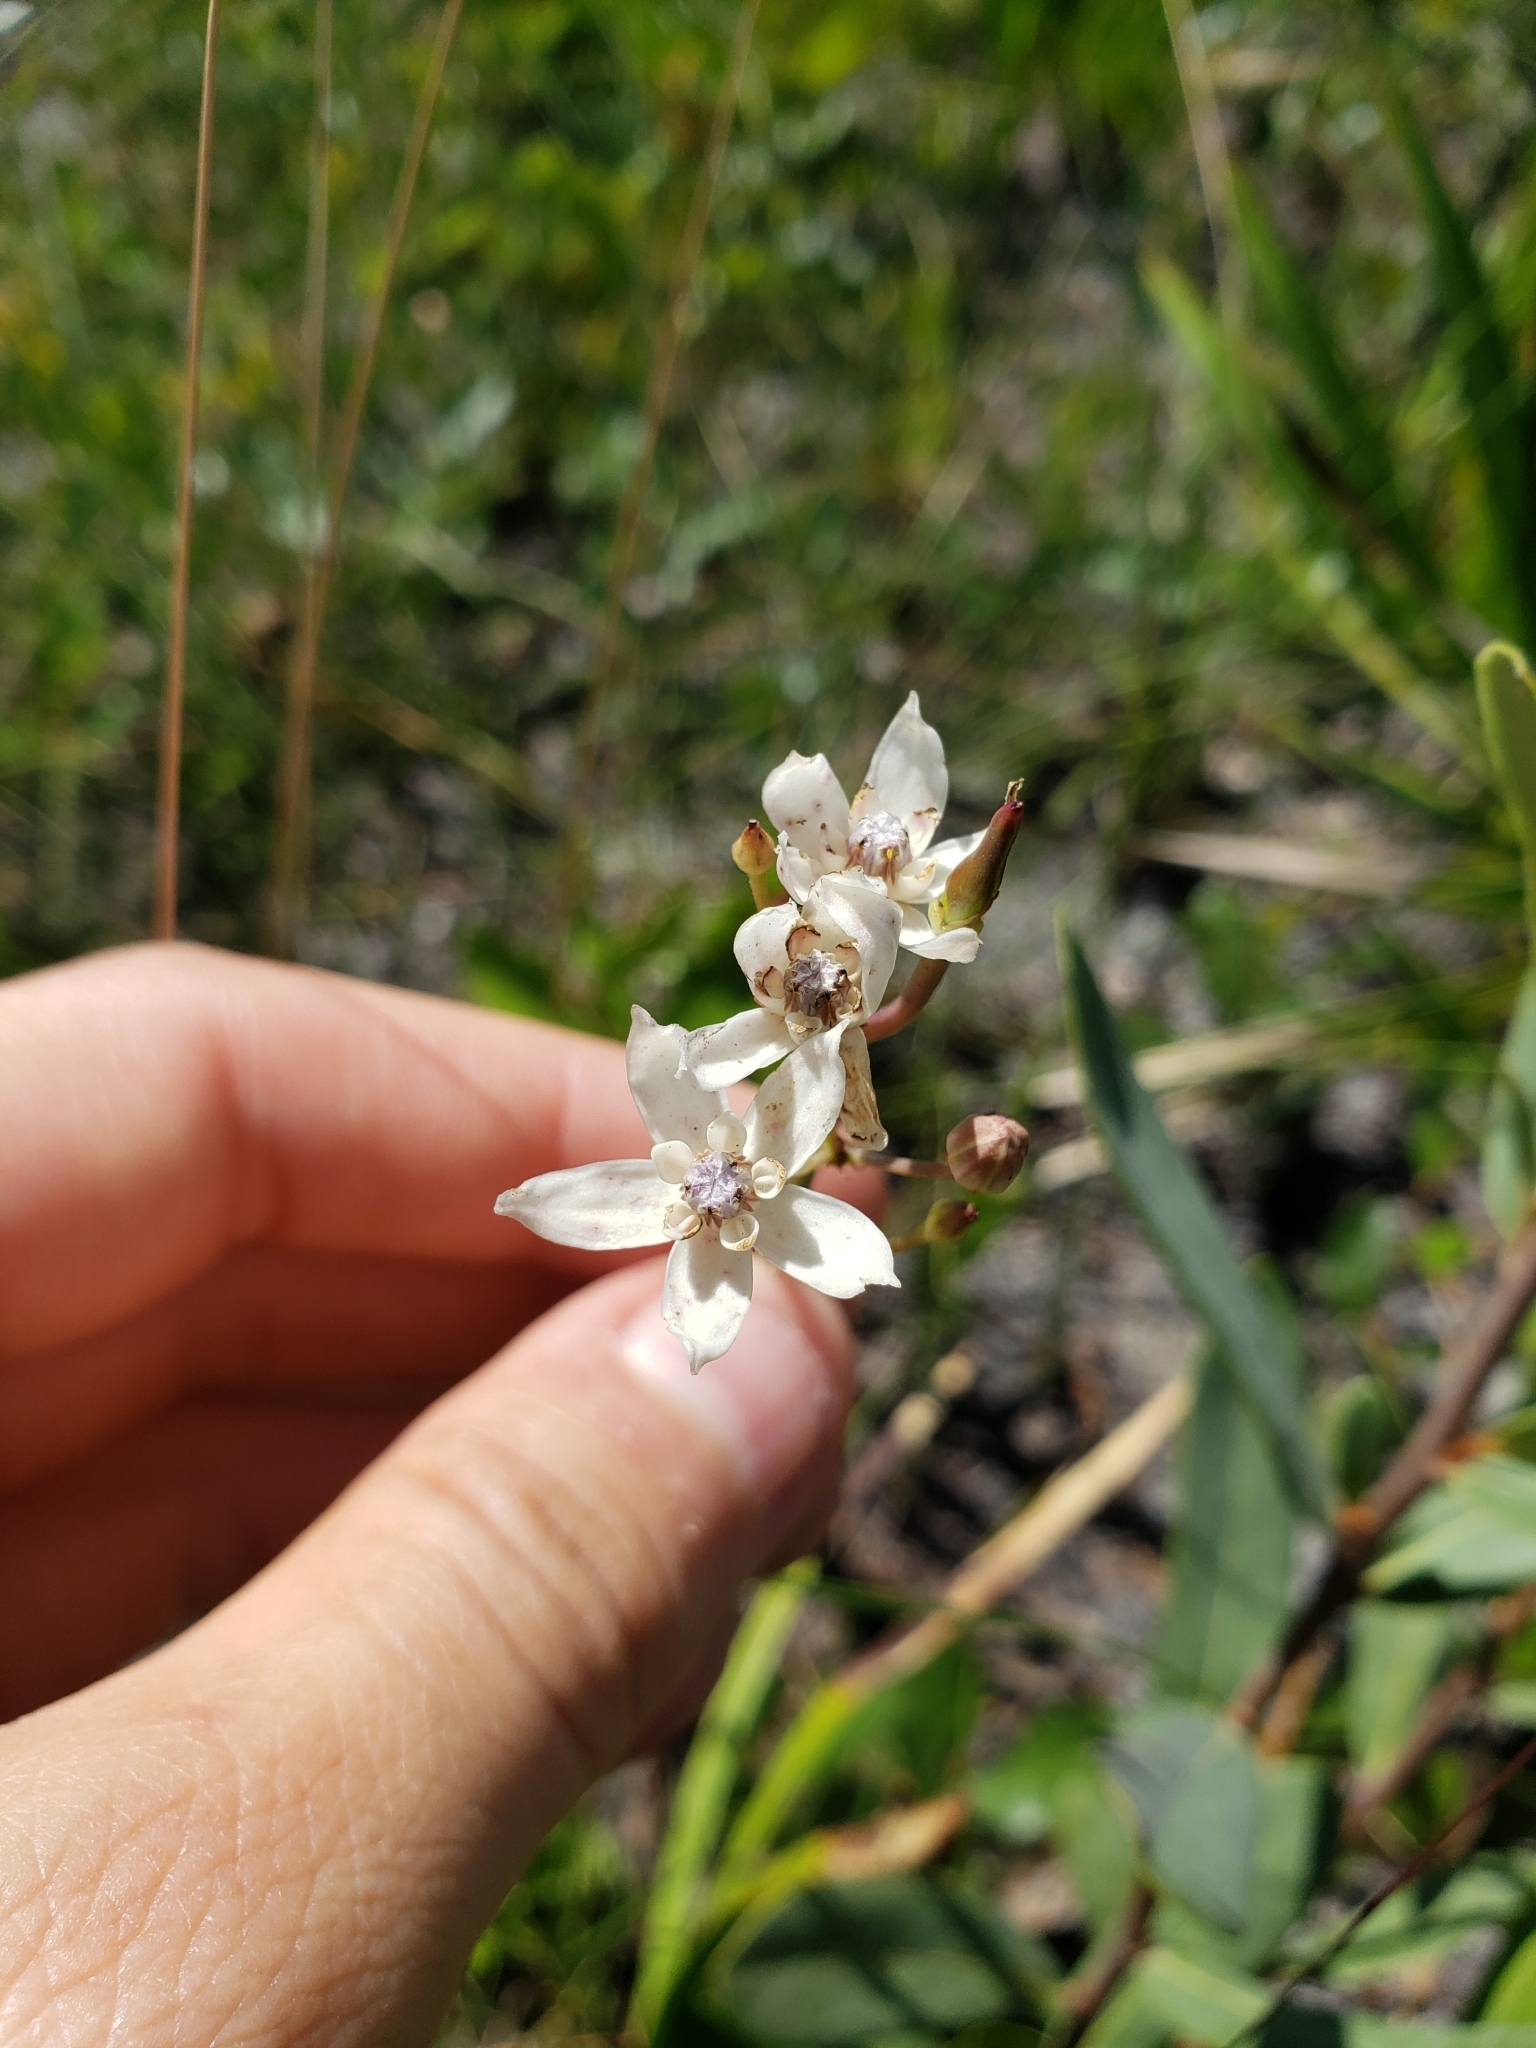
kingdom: Plantae
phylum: Tracheophyta
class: Magnoliopsida
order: Gentianales
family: Apocynaceae
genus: Asclepias
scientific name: Asclepias feayi
